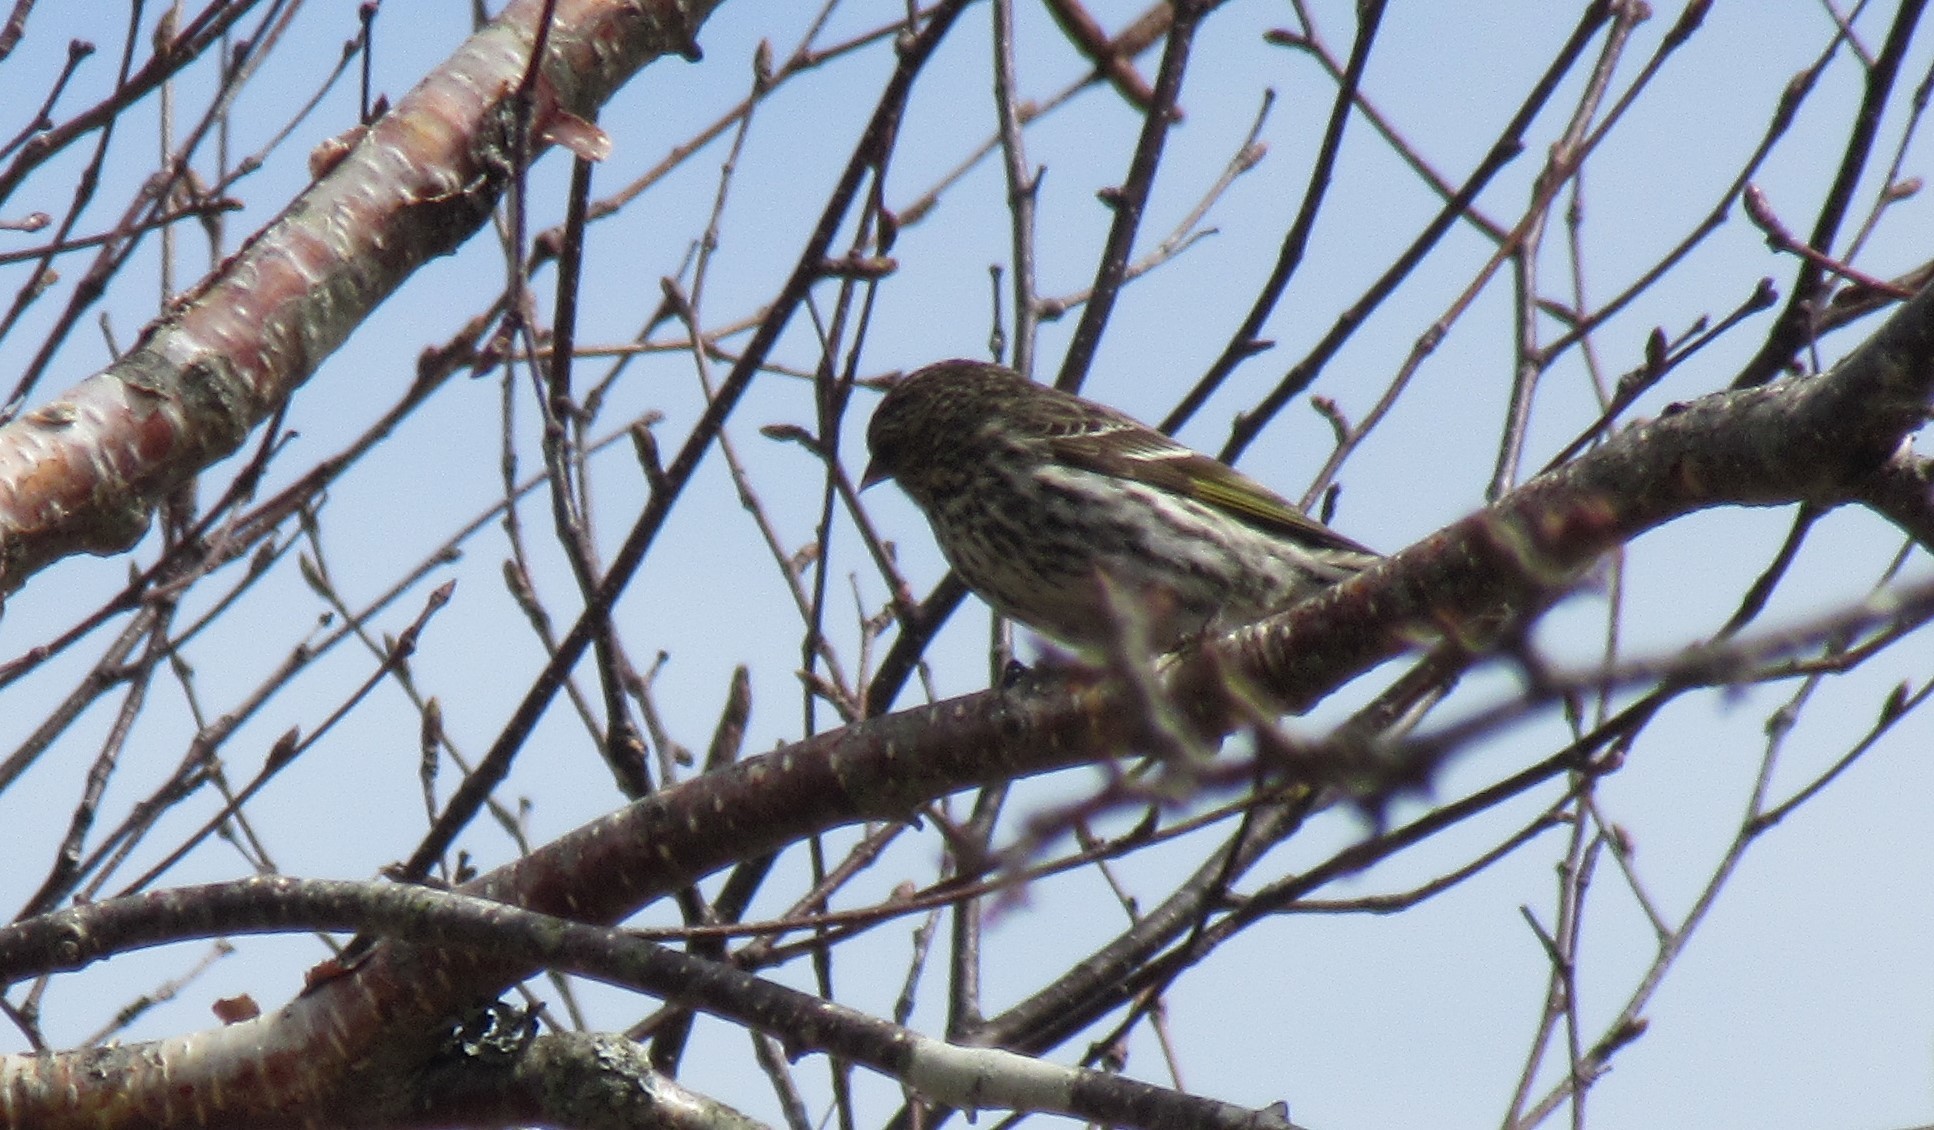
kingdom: Animalia
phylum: Chordata
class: Aves
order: Passeriformes
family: Fringillidae
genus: Spinus
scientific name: Spinus pinus
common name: Pine siskin
